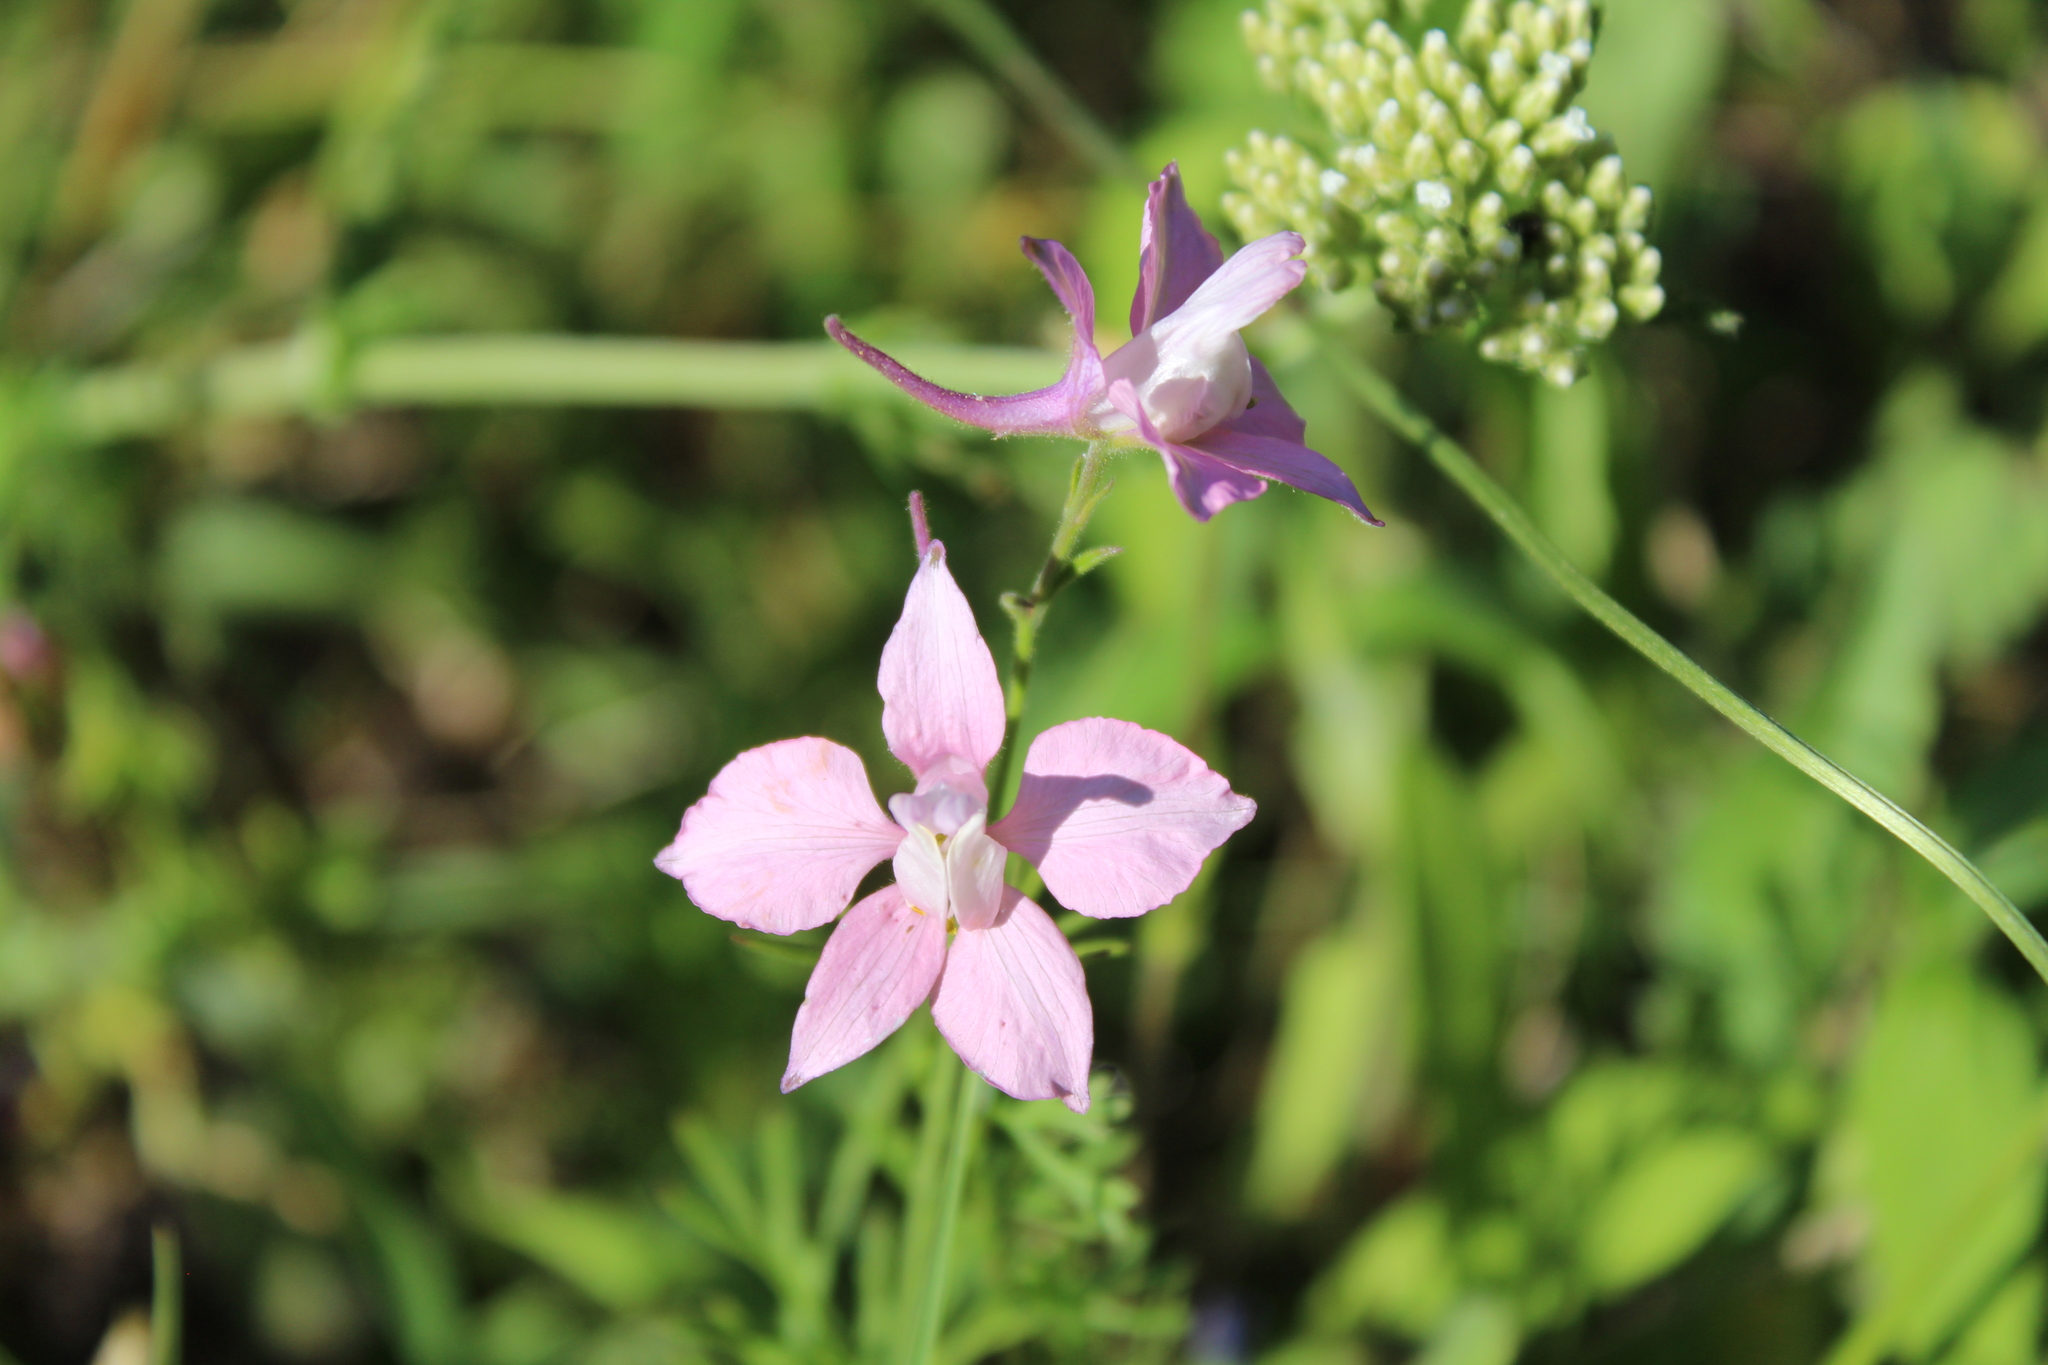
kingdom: Plantae
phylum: Tracheophyta
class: Magnoliopsida
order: Ranunculales
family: Ranunculaceae
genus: Delphinium
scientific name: Delphinium ajacis
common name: Doubtful knight's-spur
